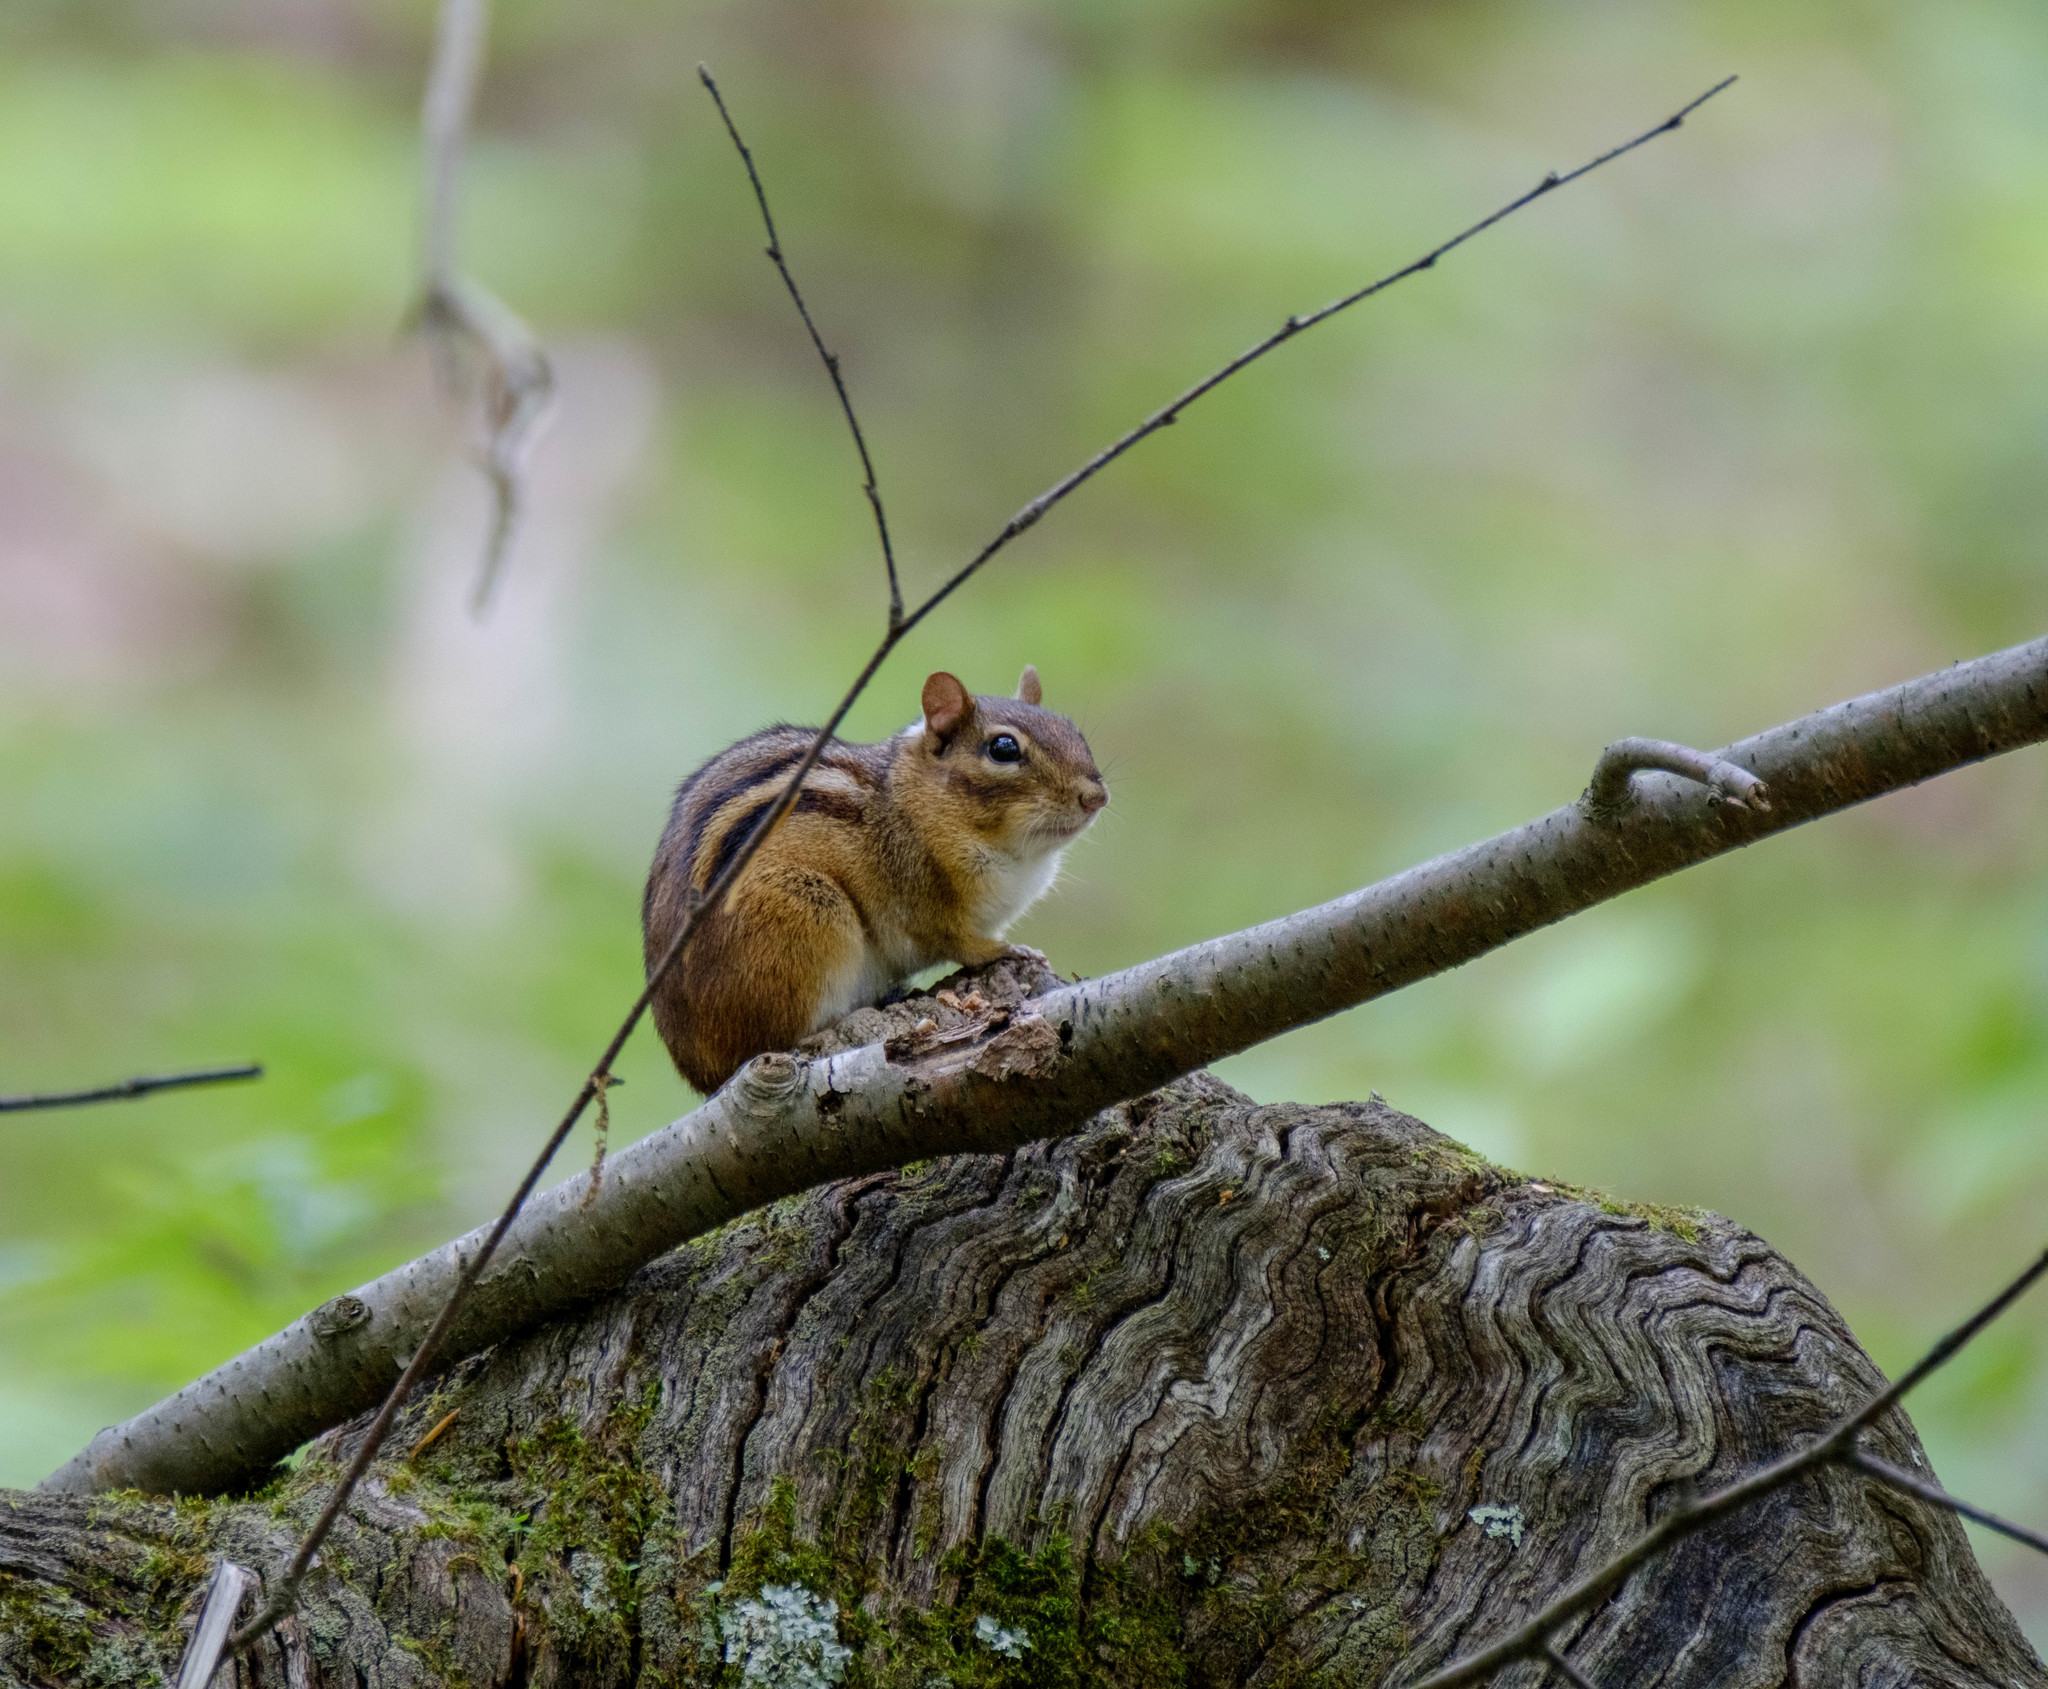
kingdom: Animalia
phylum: Chordata
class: Mammalia
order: Rodentia
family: Sciuridae
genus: Tamias
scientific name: Tamias striatus
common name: Eastern chipmunk
